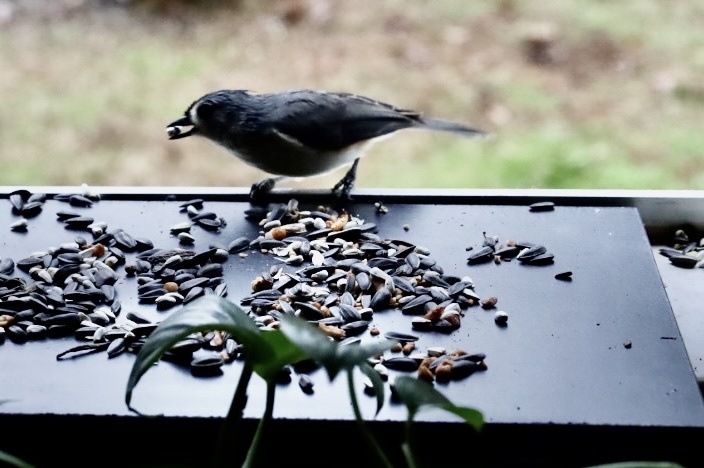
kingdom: Animalia
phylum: Chordata
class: Aves
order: Passeriformes
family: Paridae
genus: Baeolophus
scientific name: Baeolophus bicolor
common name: Tufted titmouse
